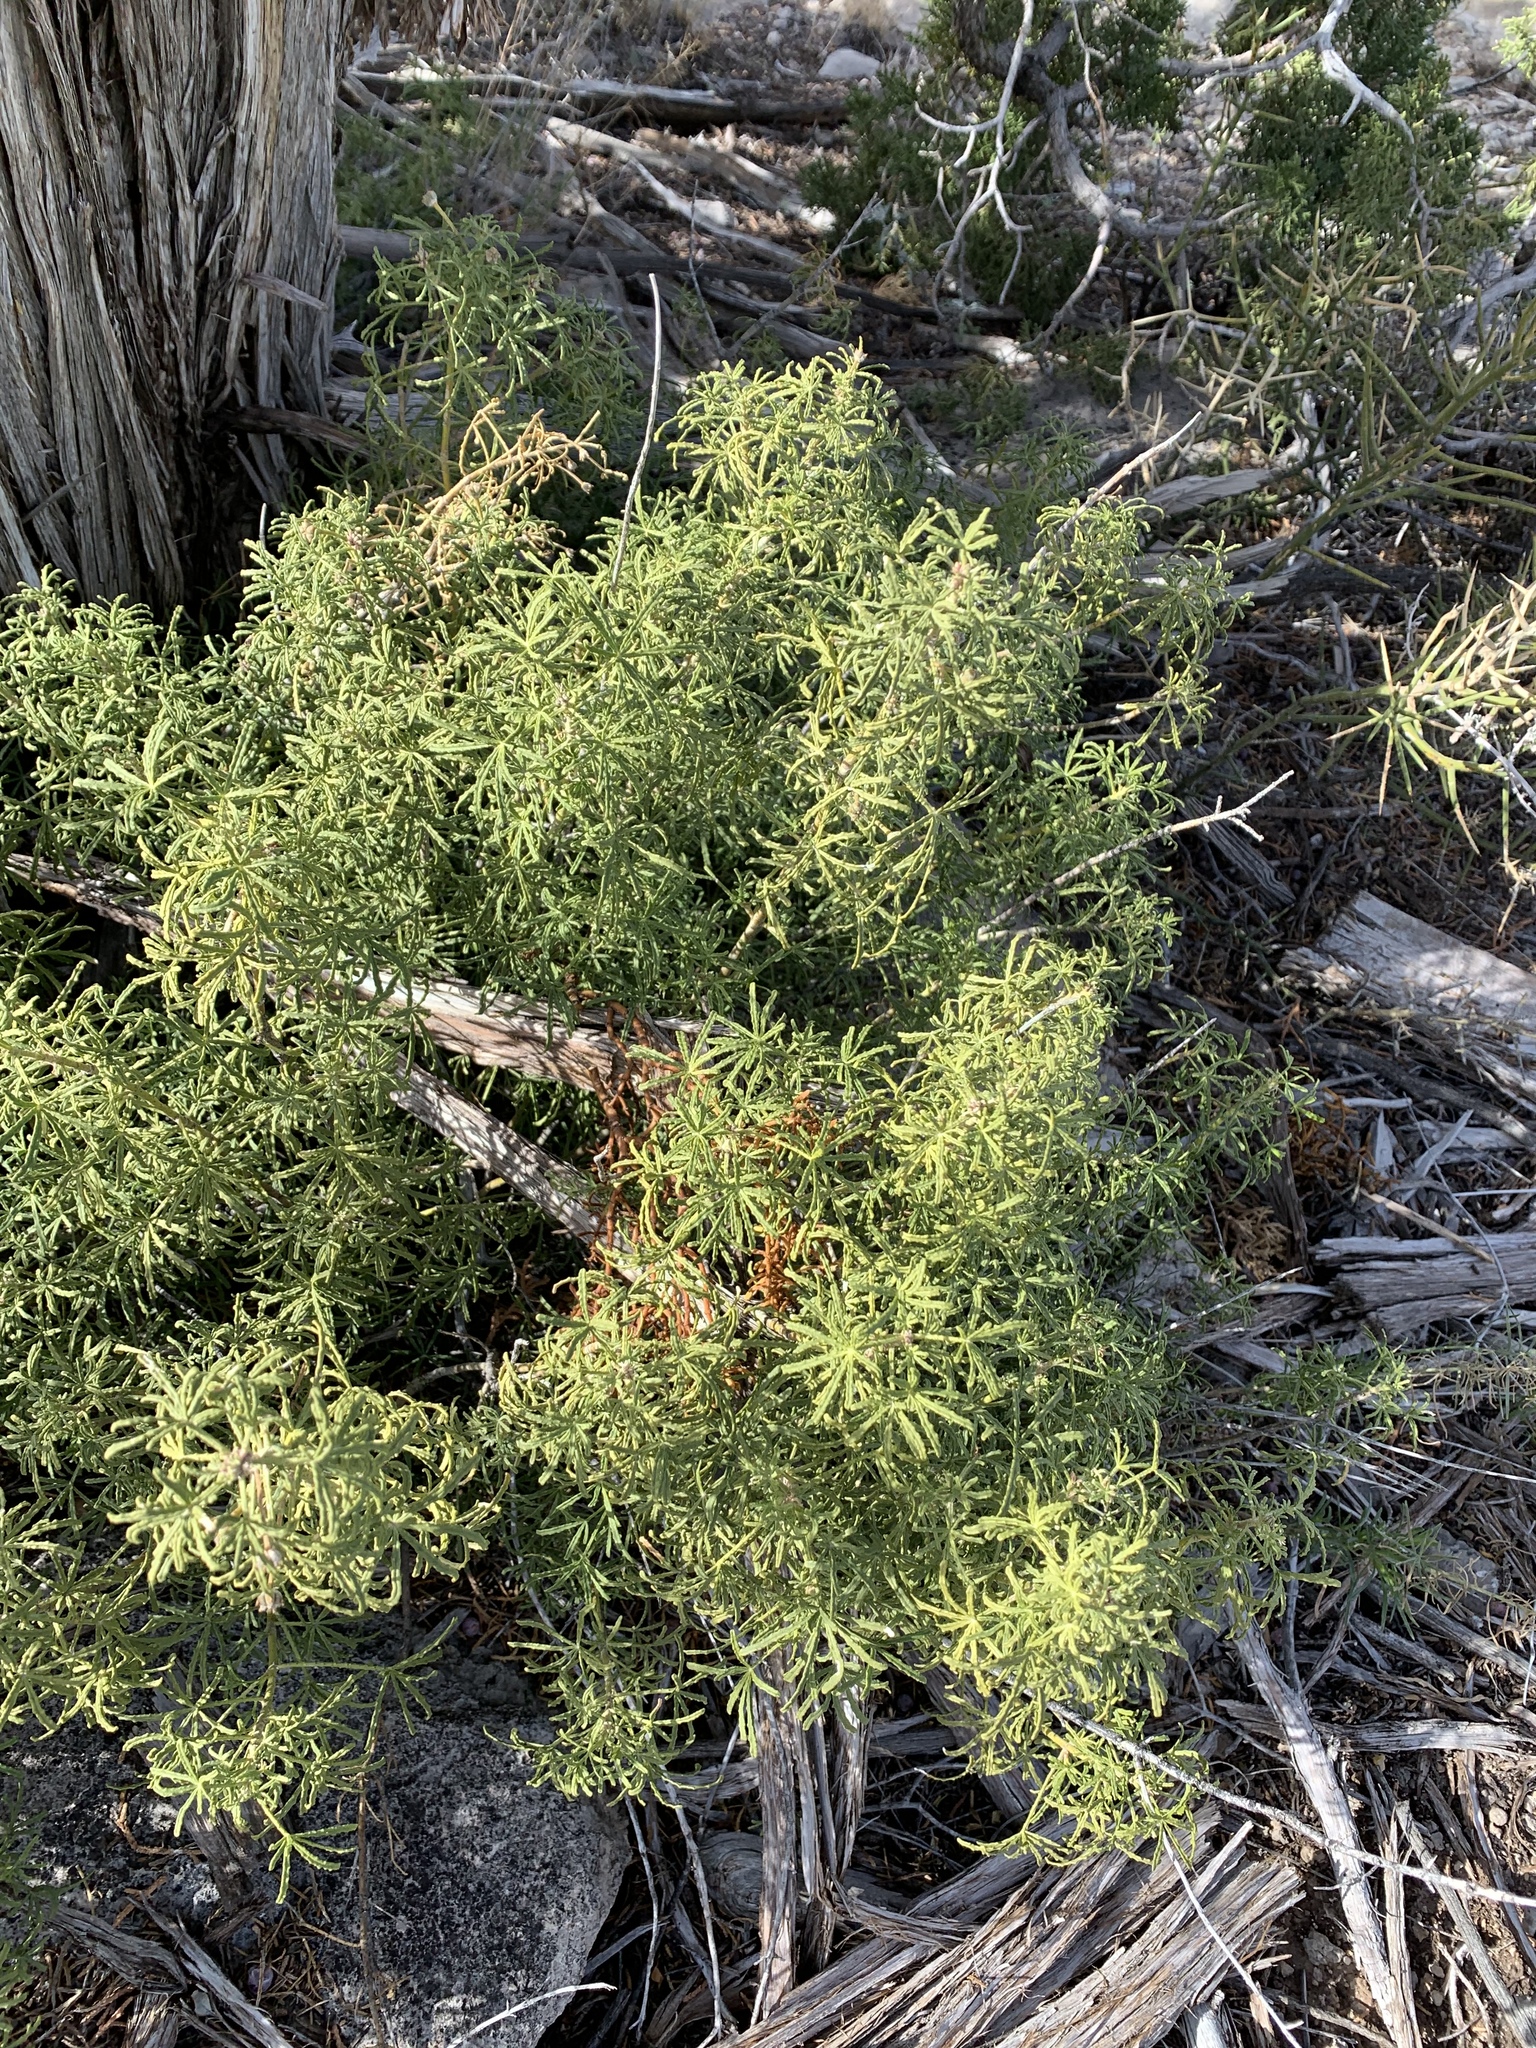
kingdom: Plantae
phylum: Tracheophyta
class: Magnoliopsida
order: Sapindales
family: Rutaceae
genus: Choisya
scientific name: Choisya dumosa
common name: Mexican-orange
